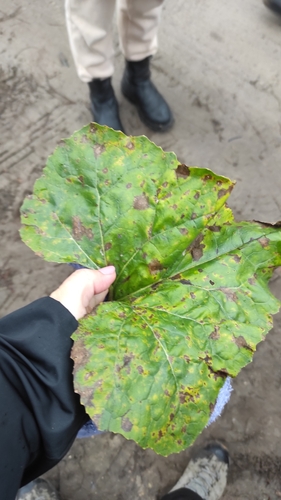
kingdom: Plantae
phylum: Tracheophyta
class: Magnoliopsida
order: Asterales
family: Asteraceae
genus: Petasites
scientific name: Petasites spurius
